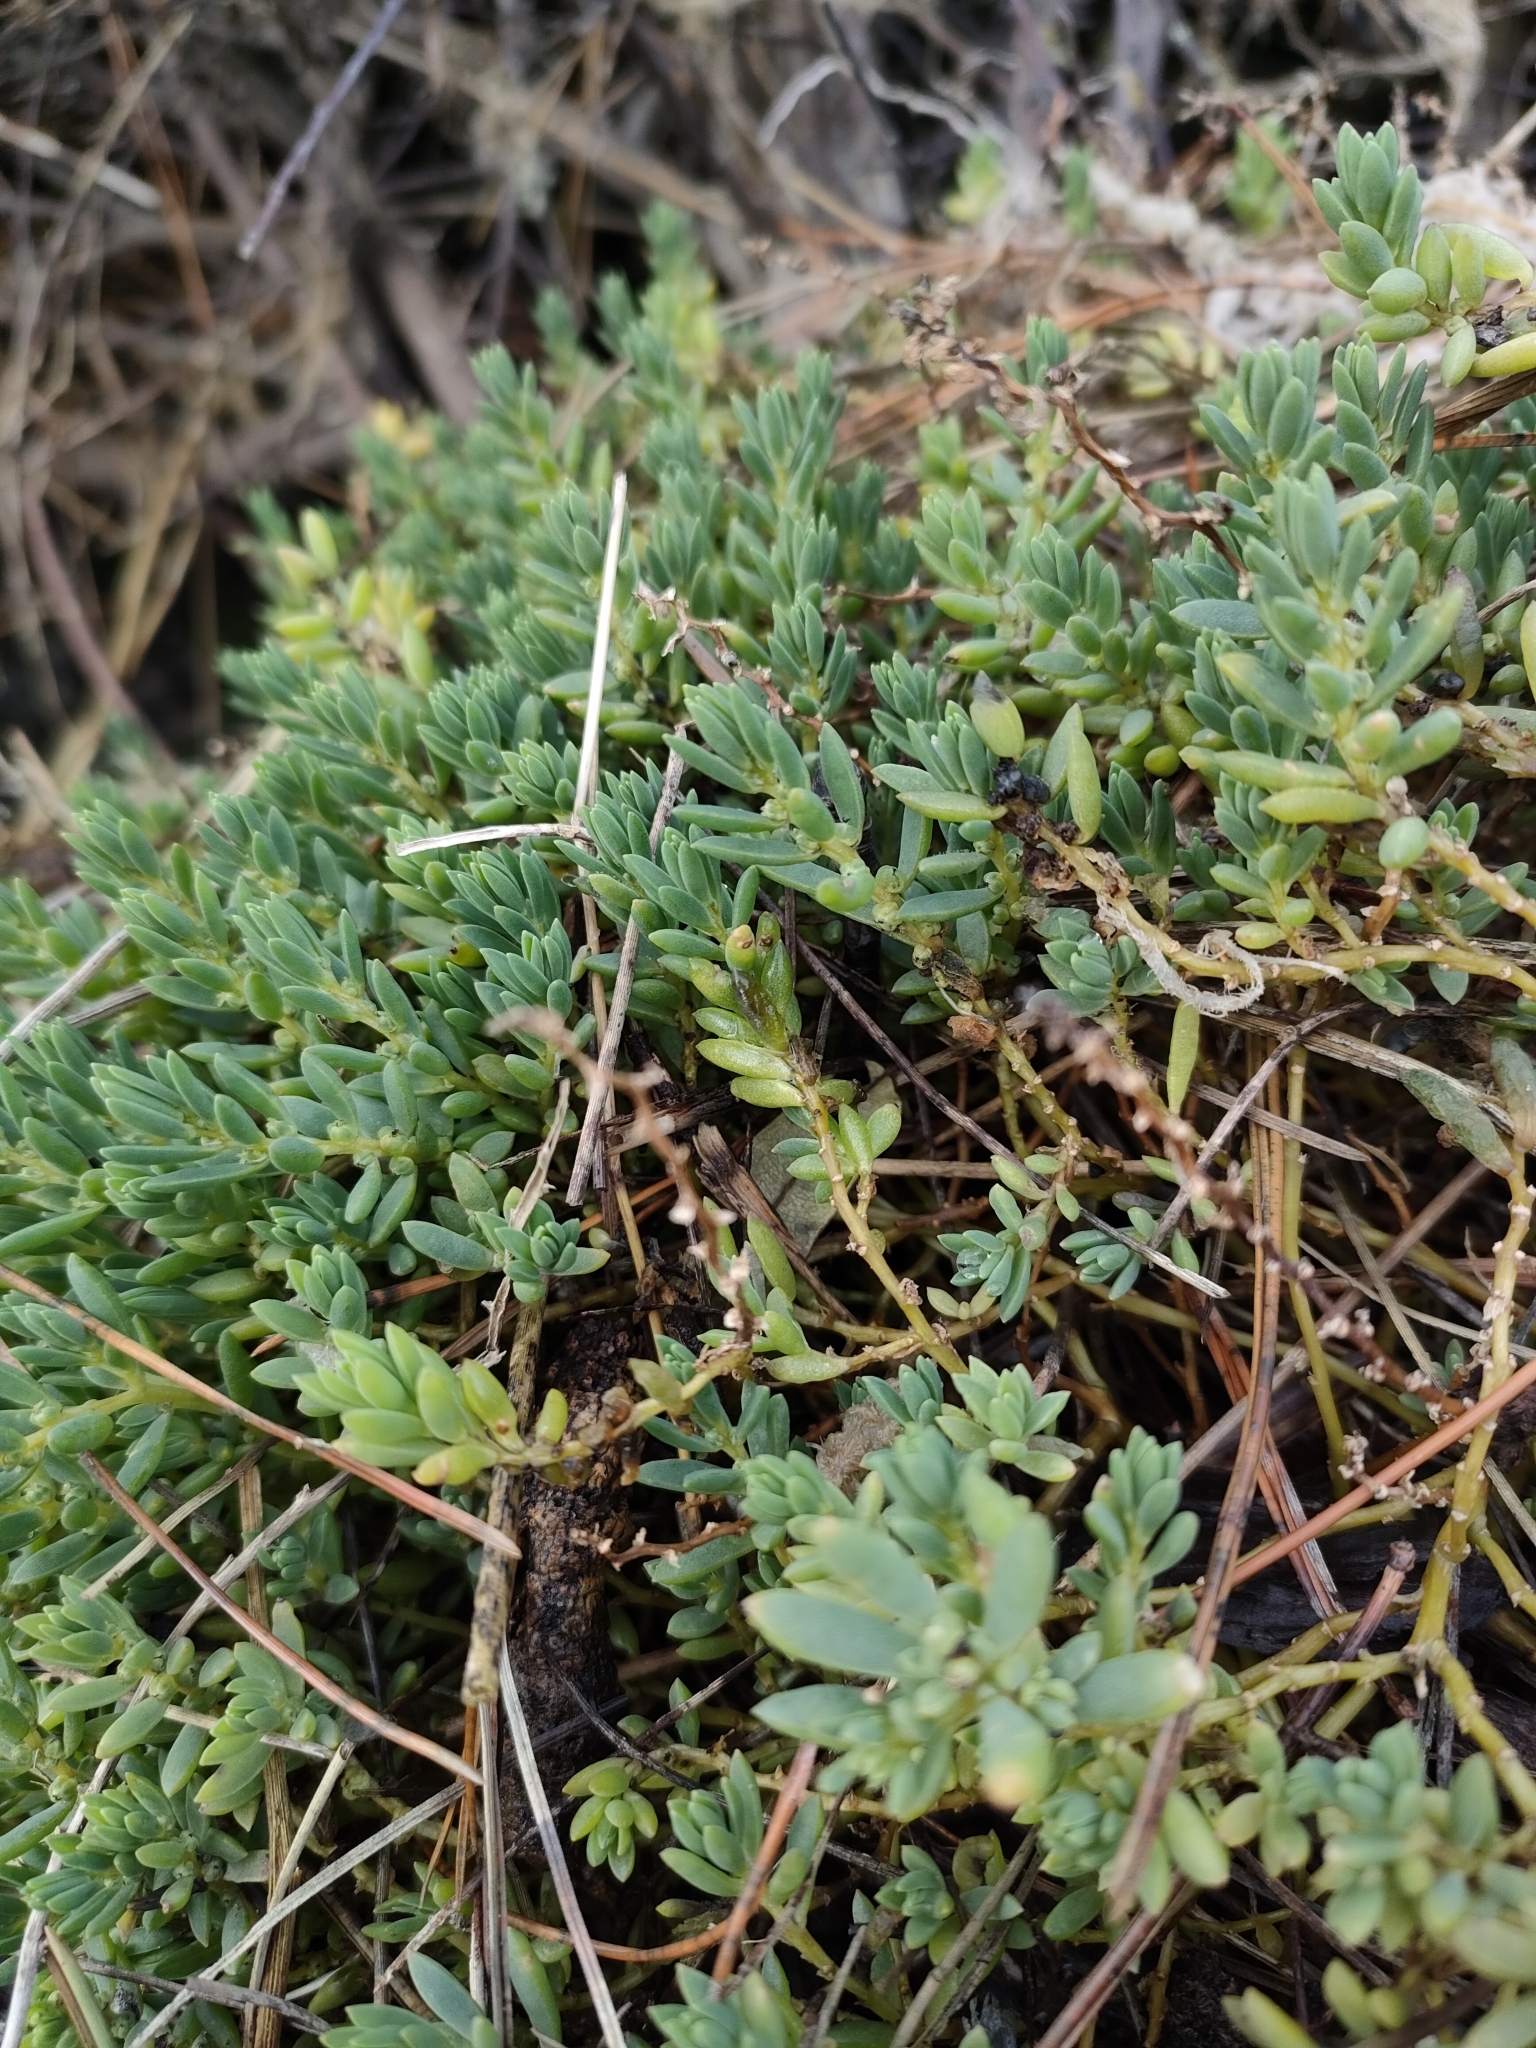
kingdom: Plantae
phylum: Tracheophyta
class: Magnoliopsida
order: Caryophyllales
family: Amaranthaceae
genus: Suaeda
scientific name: Suaeda novae-zelandiae
